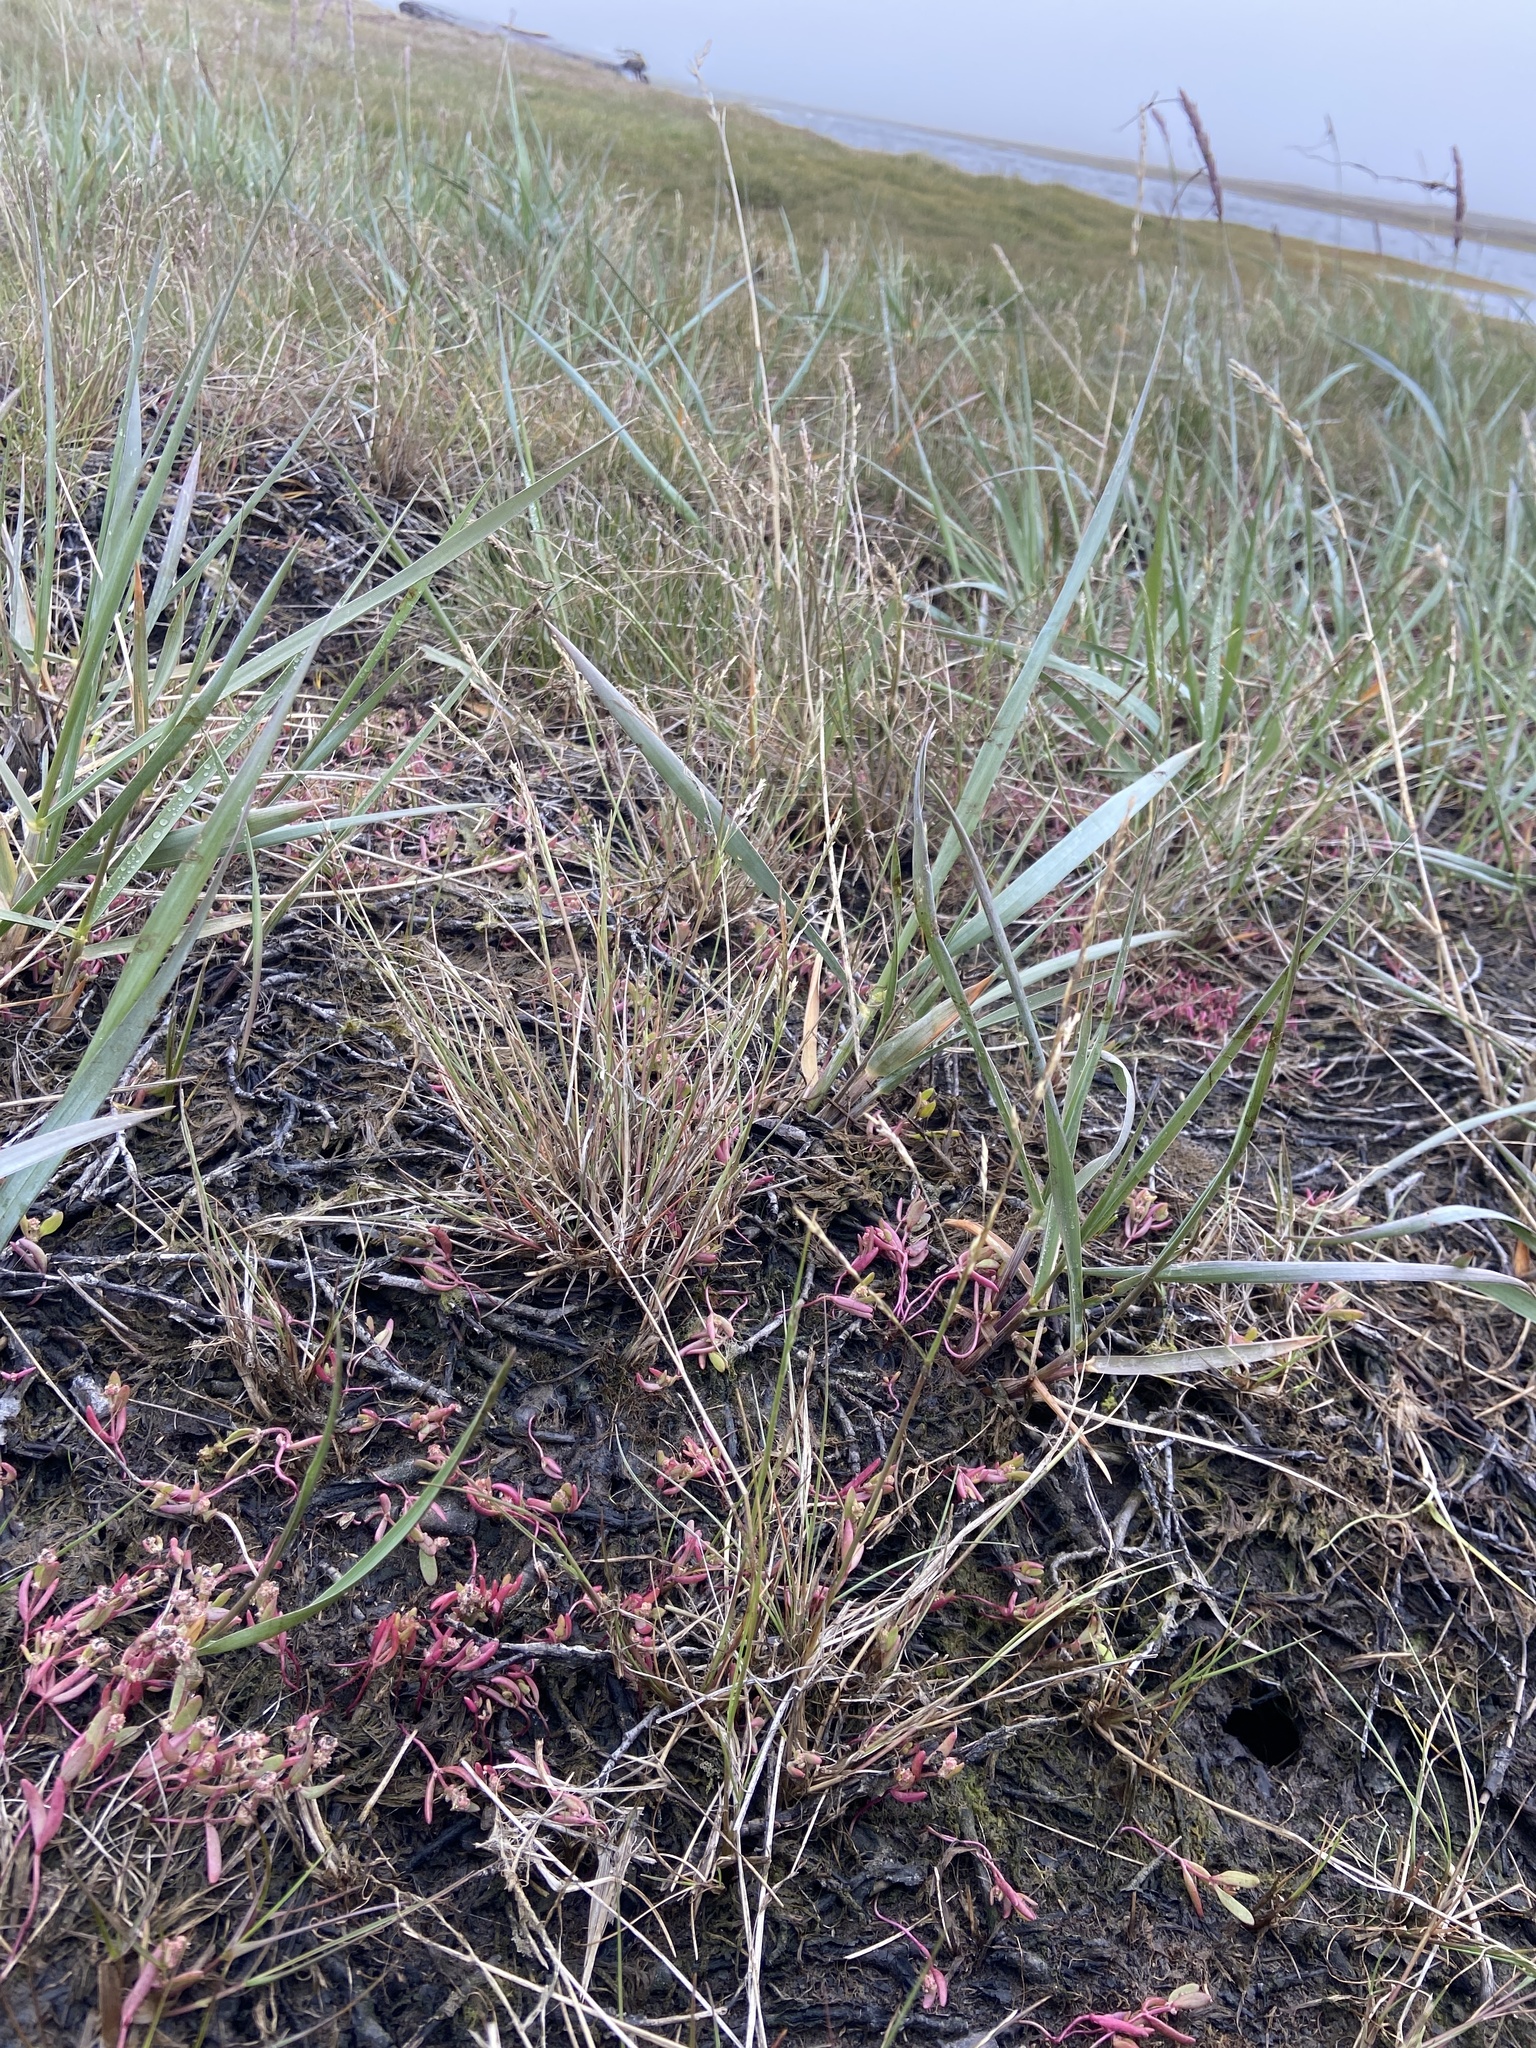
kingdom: Plantae
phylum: Tracheophyta
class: Magnoliopsida
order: Caryophyllales
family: Amaranthaceae
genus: Atriplex
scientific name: Atriplex gmelinii
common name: Gmelin's orach
